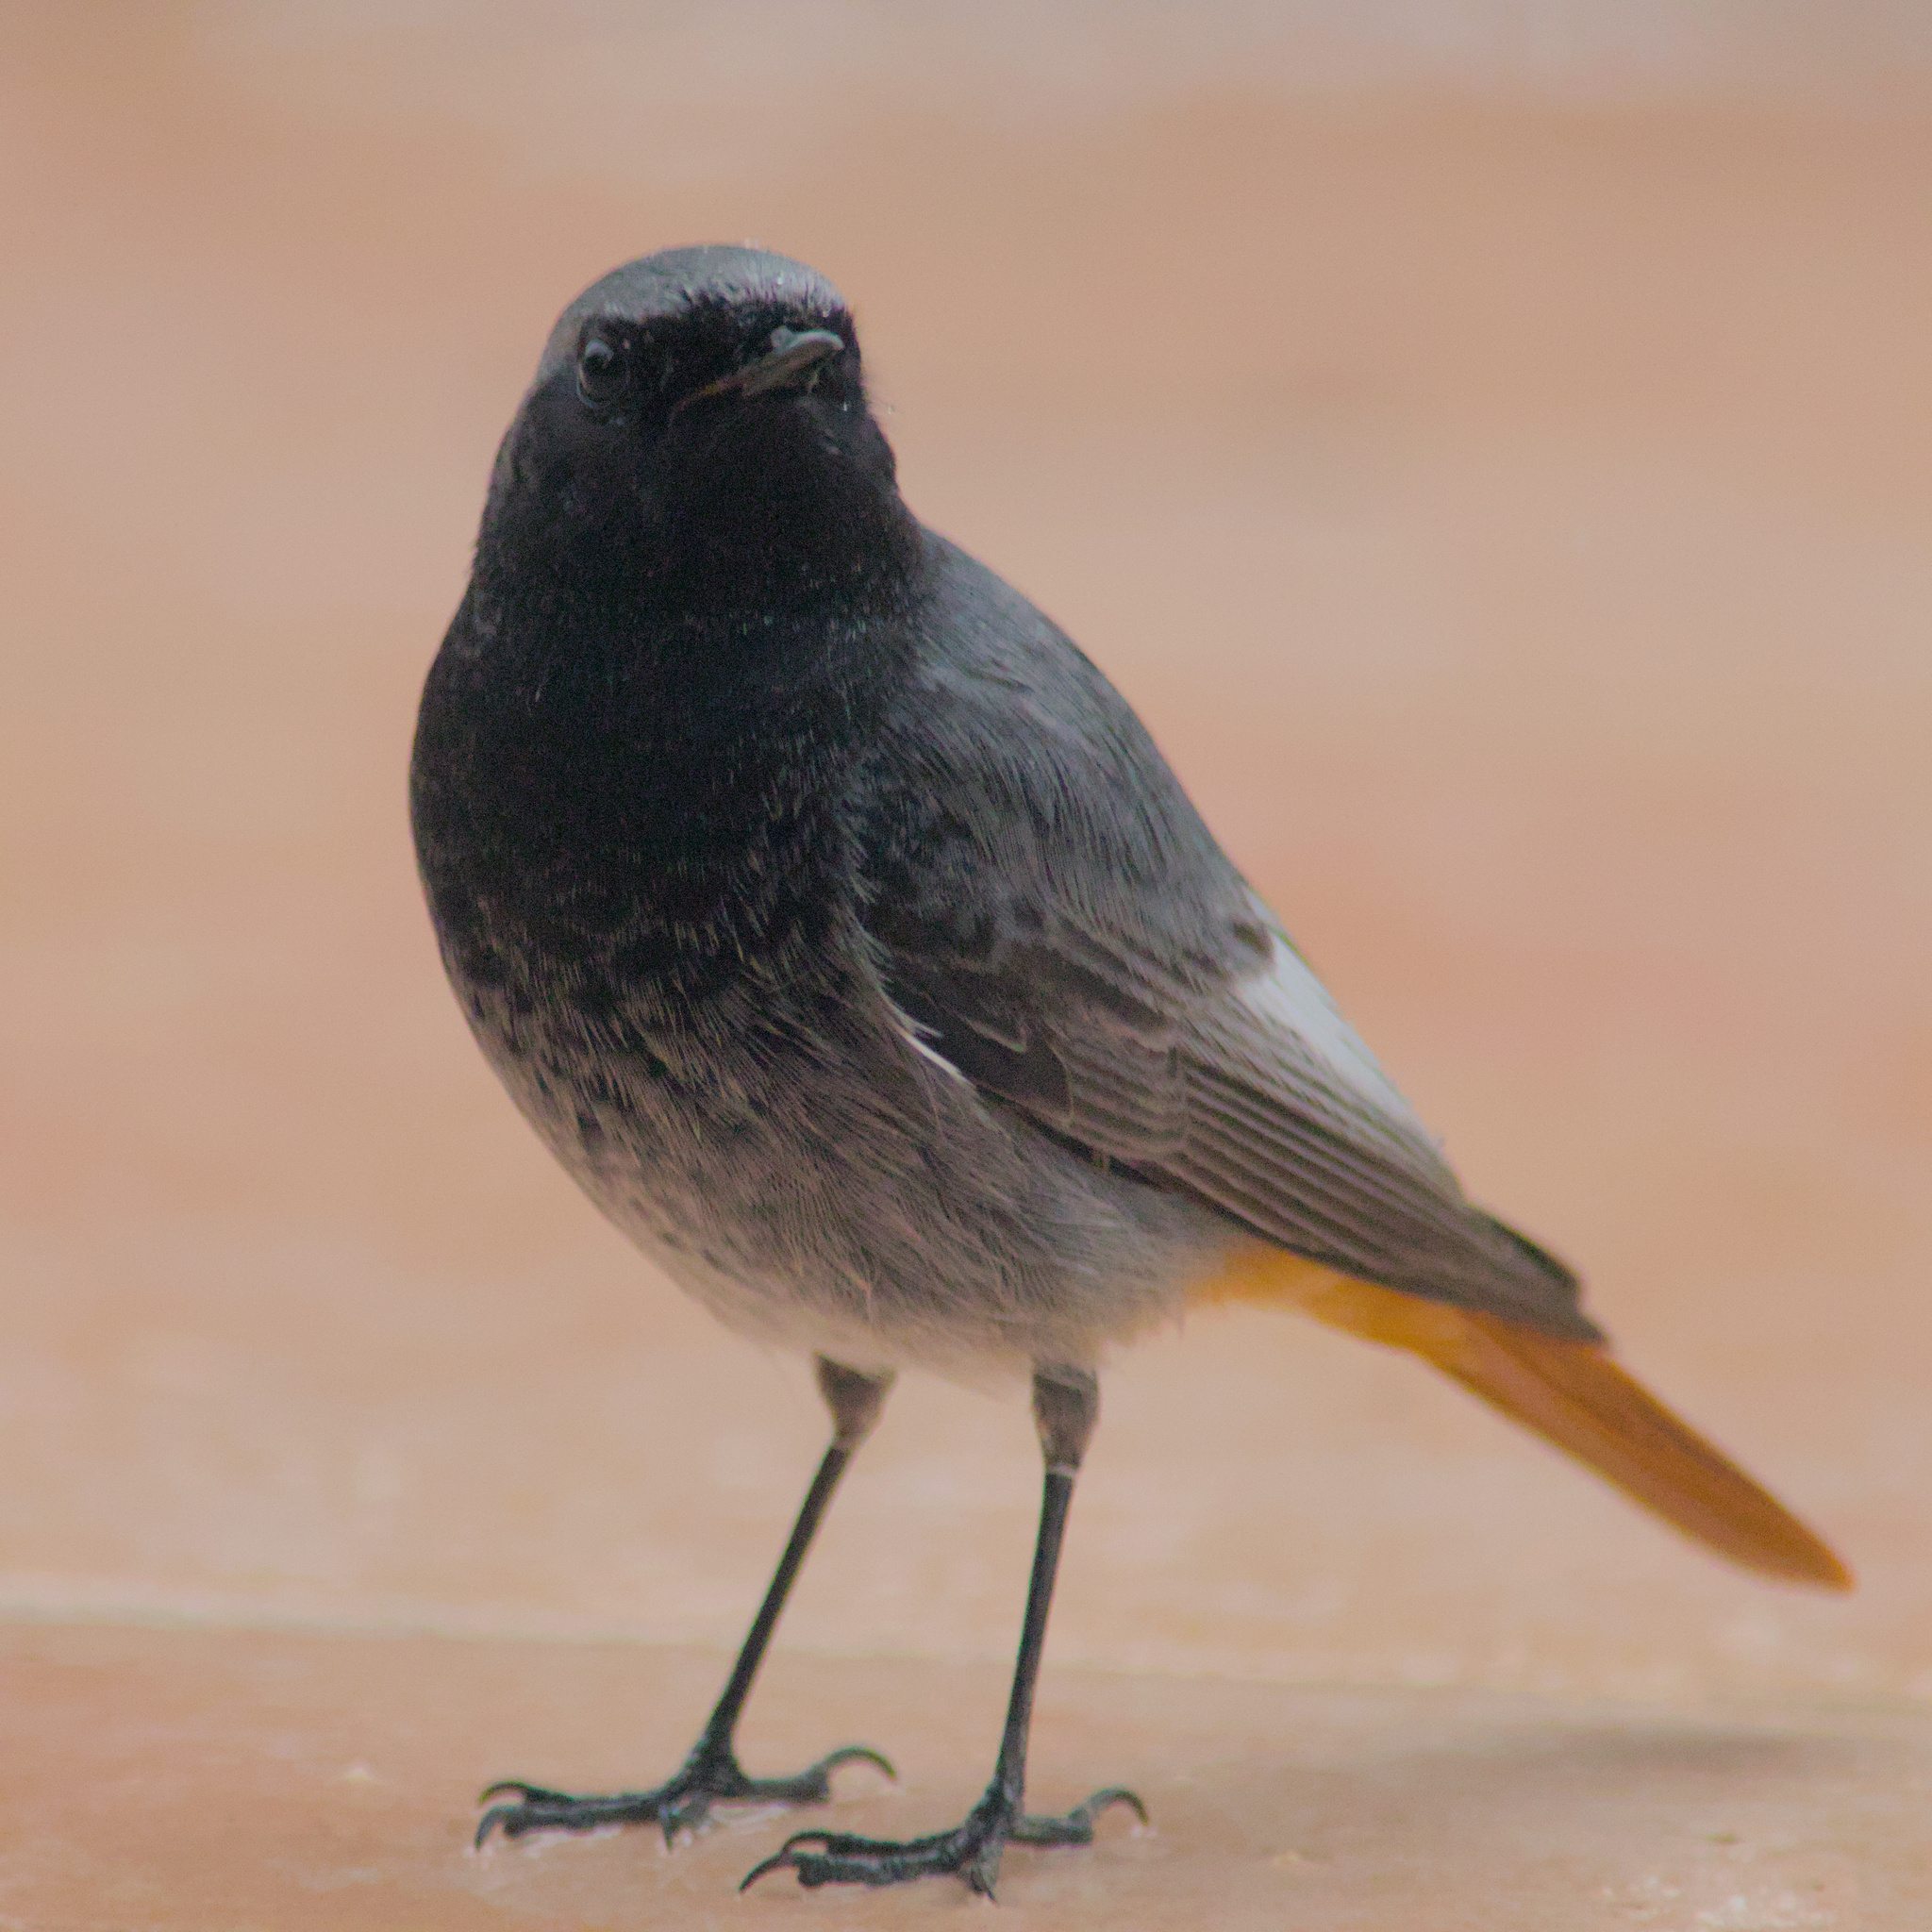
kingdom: Animalia
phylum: Chordata
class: Aves
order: Passeriformes
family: Muscicapidae
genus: Phoenicurus
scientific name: Phoenicurus ochruros
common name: Black redstart
